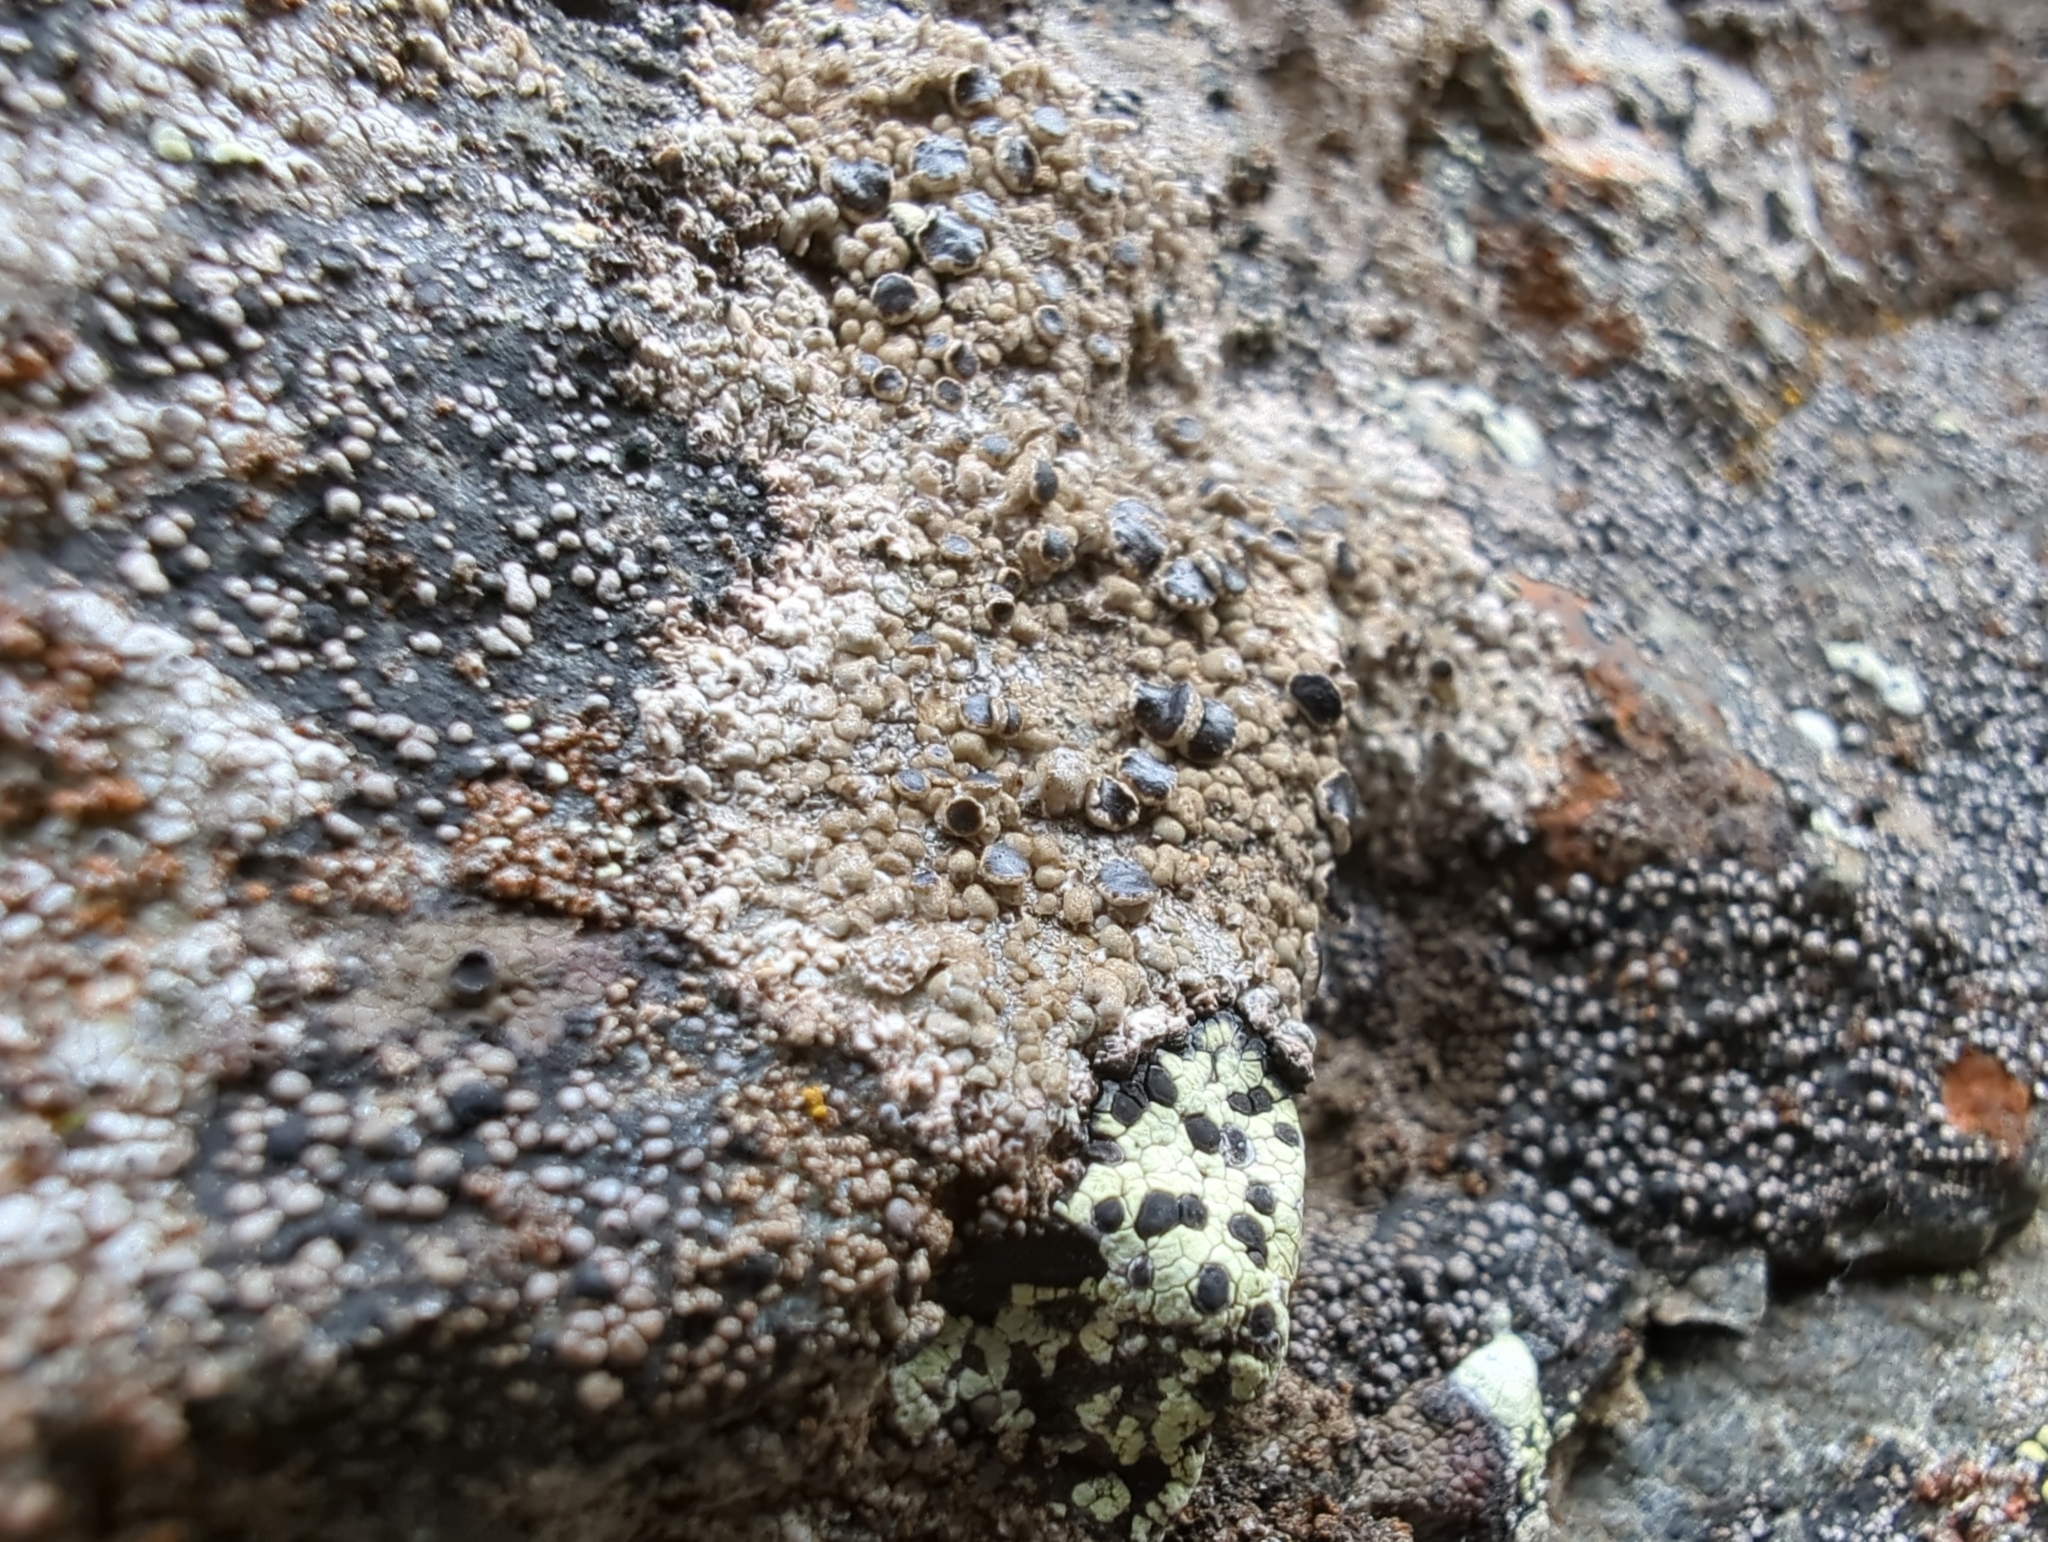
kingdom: Fungi
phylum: Ascomycota
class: Lecanoromycetes
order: Lecanorales
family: Parmeliaceae
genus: Protoparmelia
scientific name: Protoparmelia badia
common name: Chocolate rim lichen
